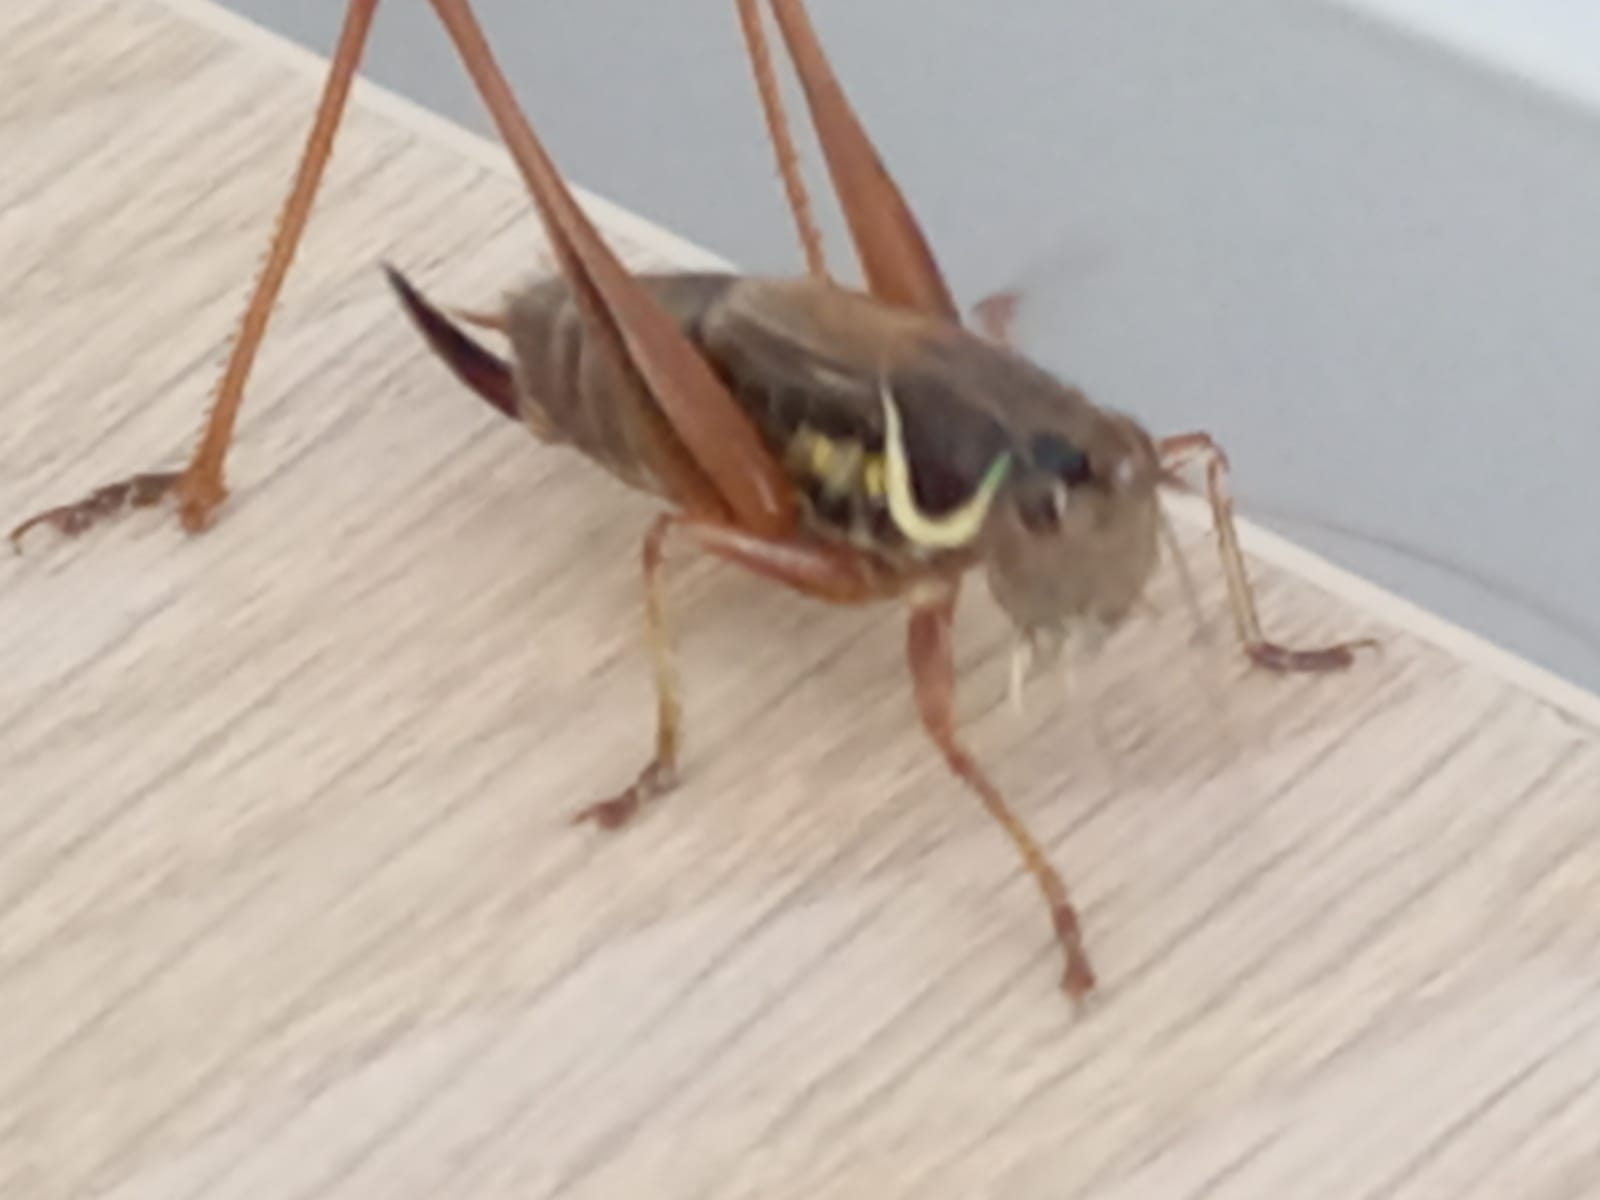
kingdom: Animalia
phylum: Arthropoda
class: Insecta
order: Orthoptera
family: Tettigoniidae
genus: Roeseliana
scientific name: Roeseliana roeselii
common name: Roesel's bush cricket
